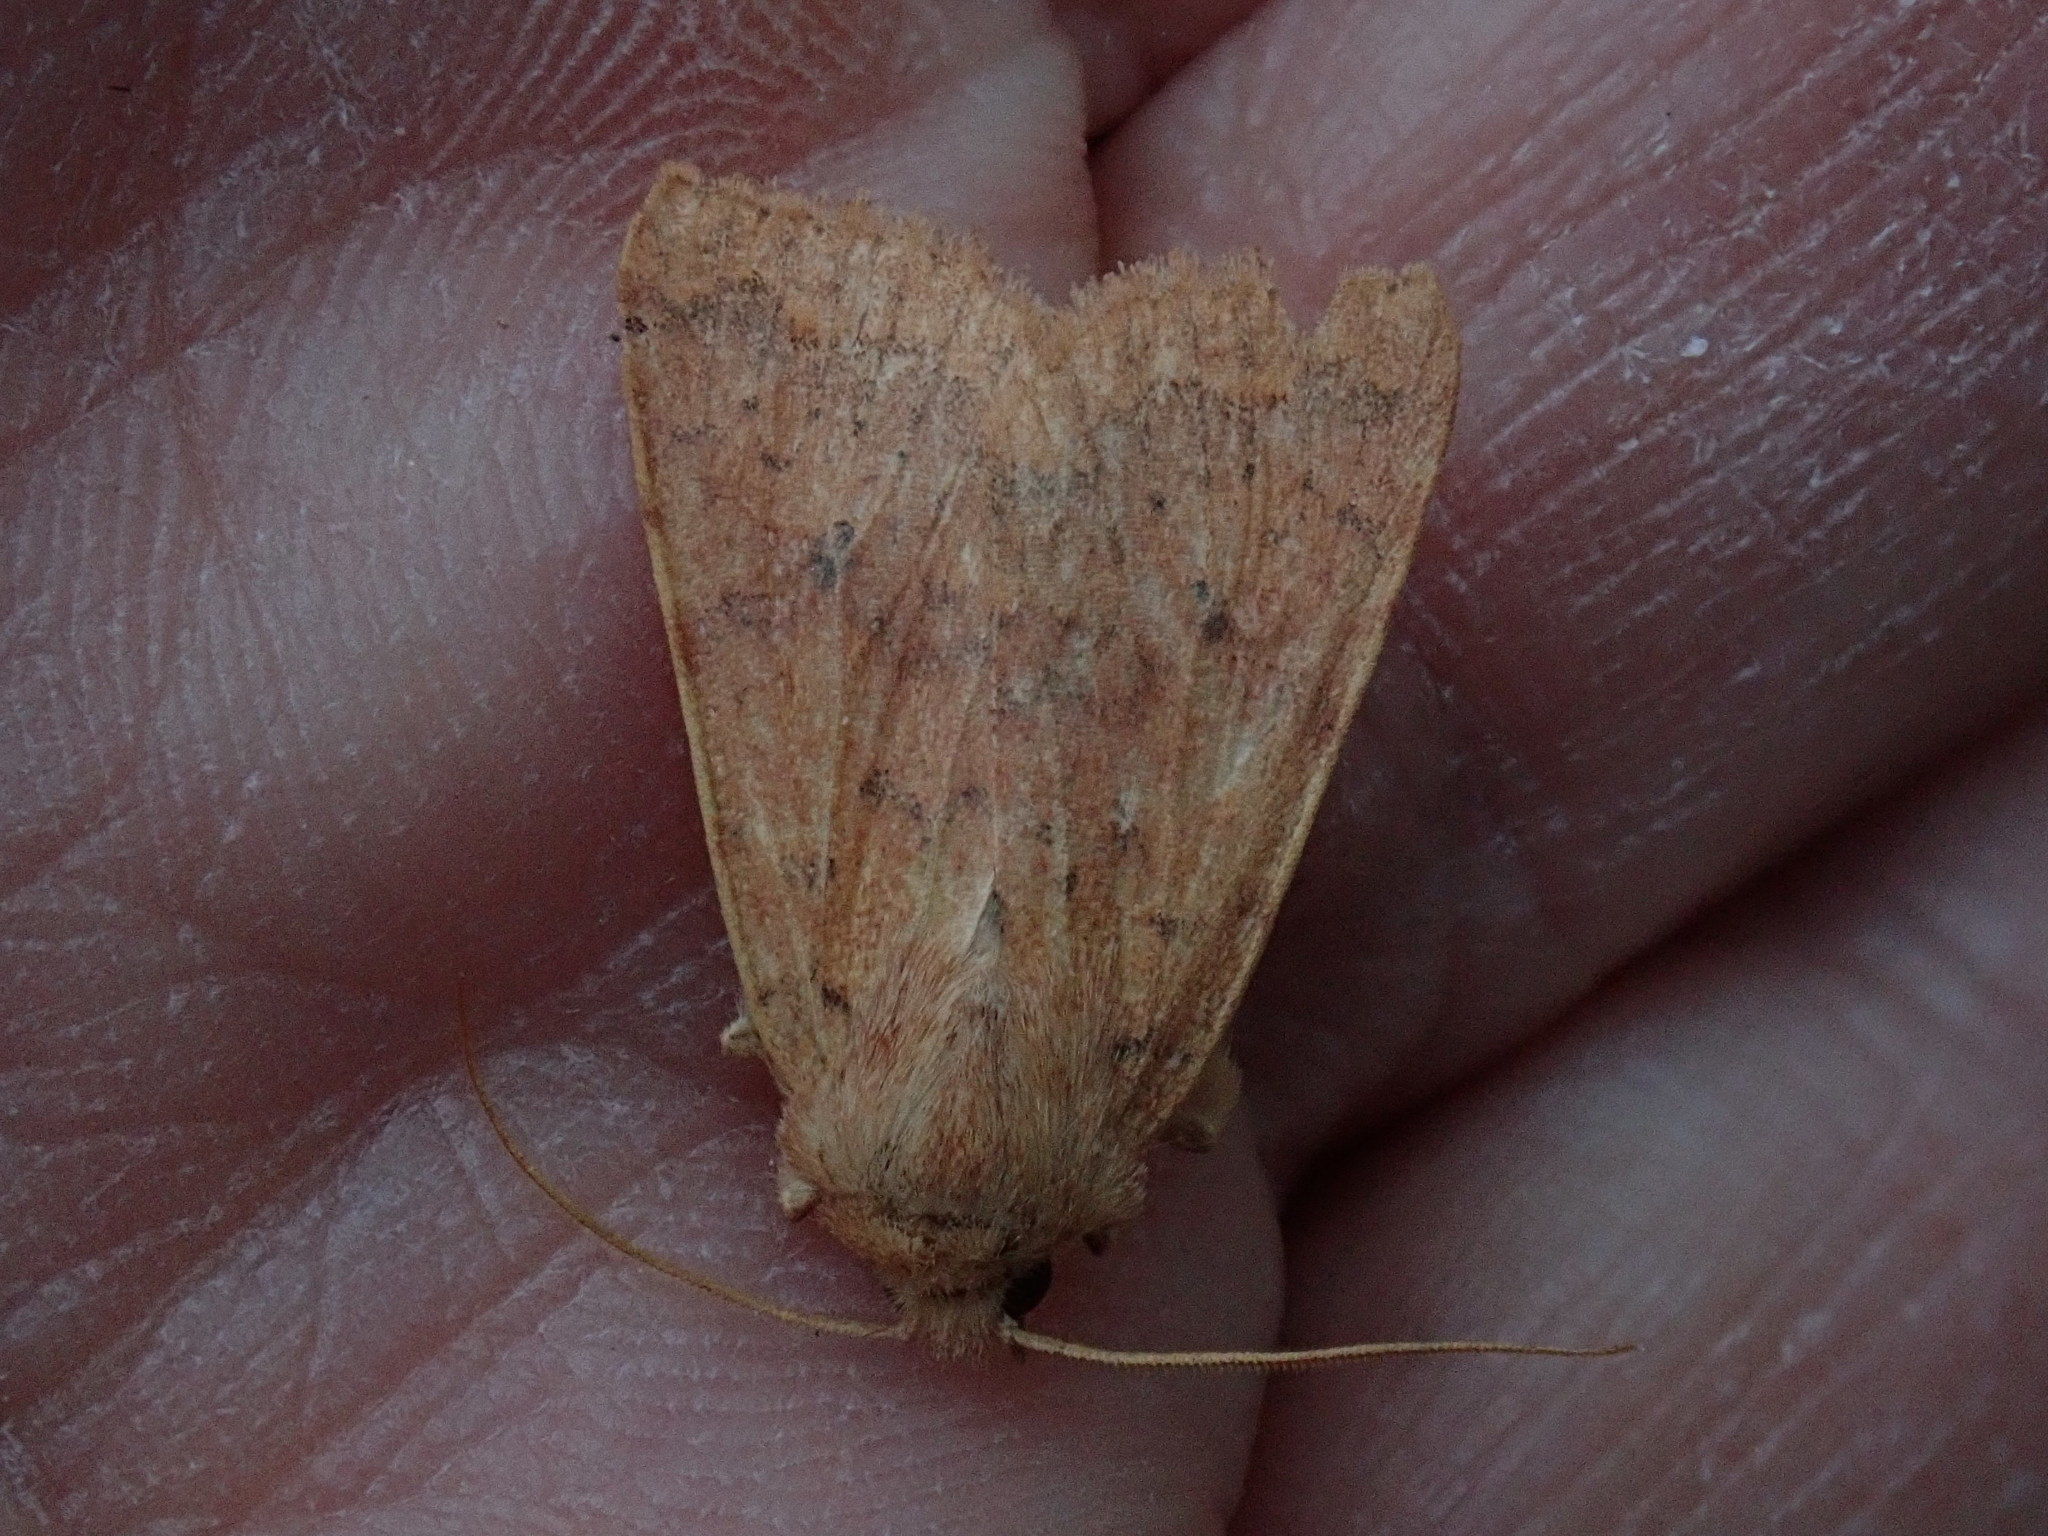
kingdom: Animalia
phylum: Arthropoda
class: Insecta
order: Lepidoptera
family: Noctuidae
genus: Agrochola
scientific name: Agrochola bicolorago
